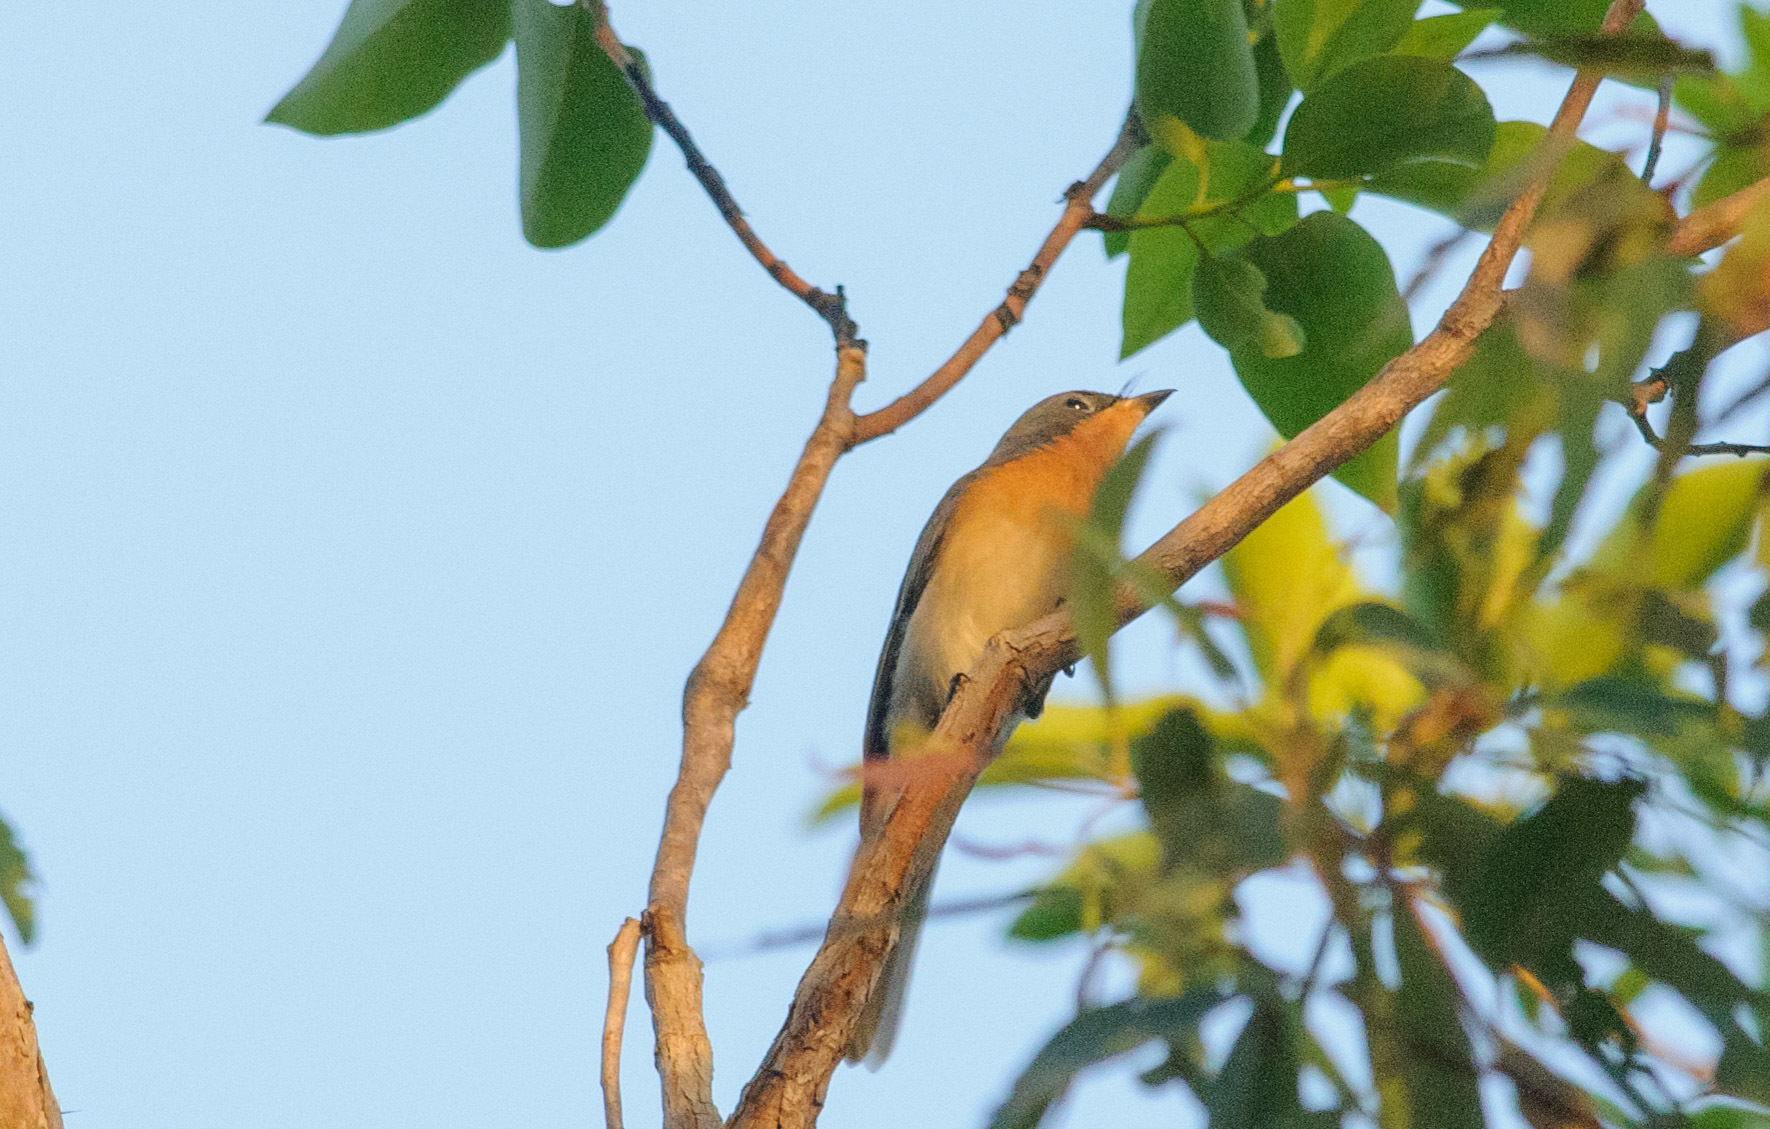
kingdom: Animalia
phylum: Chordata
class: Aves
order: Passeriformes
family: Monarchidae
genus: Myiagra
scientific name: Myiagra rubecula
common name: Leaden flycatcher
